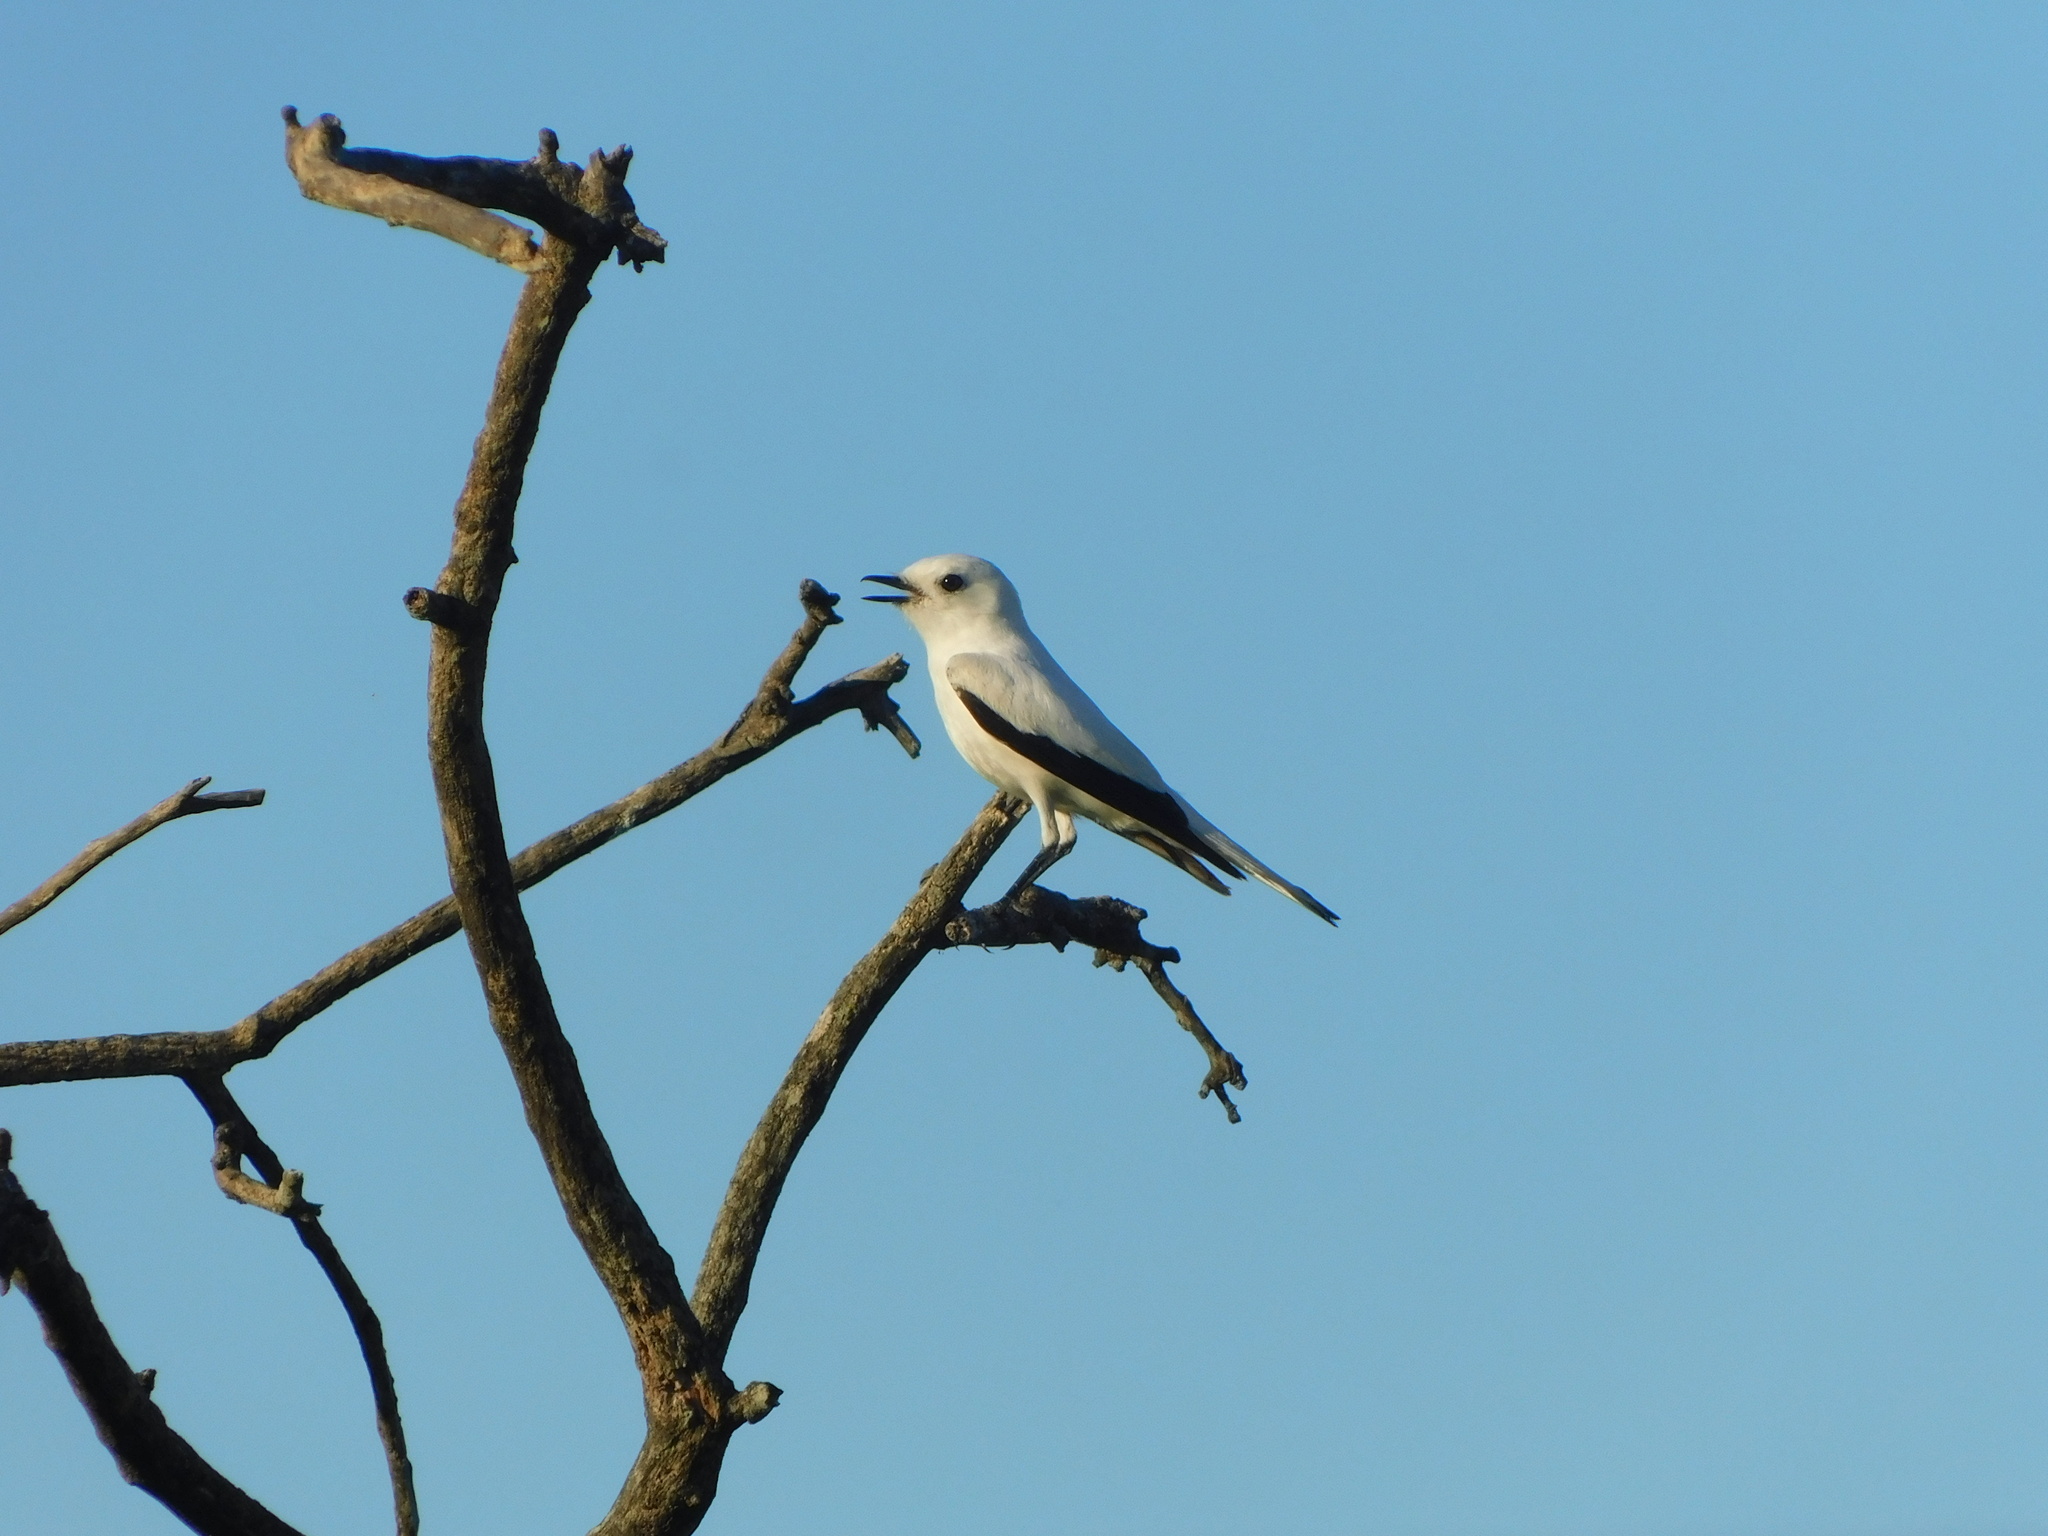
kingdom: Animalia
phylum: Chordata
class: Aves
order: Passeriformes
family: Tyrannidae
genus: Xolmis
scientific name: Xolmis irupero
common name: White monjita
